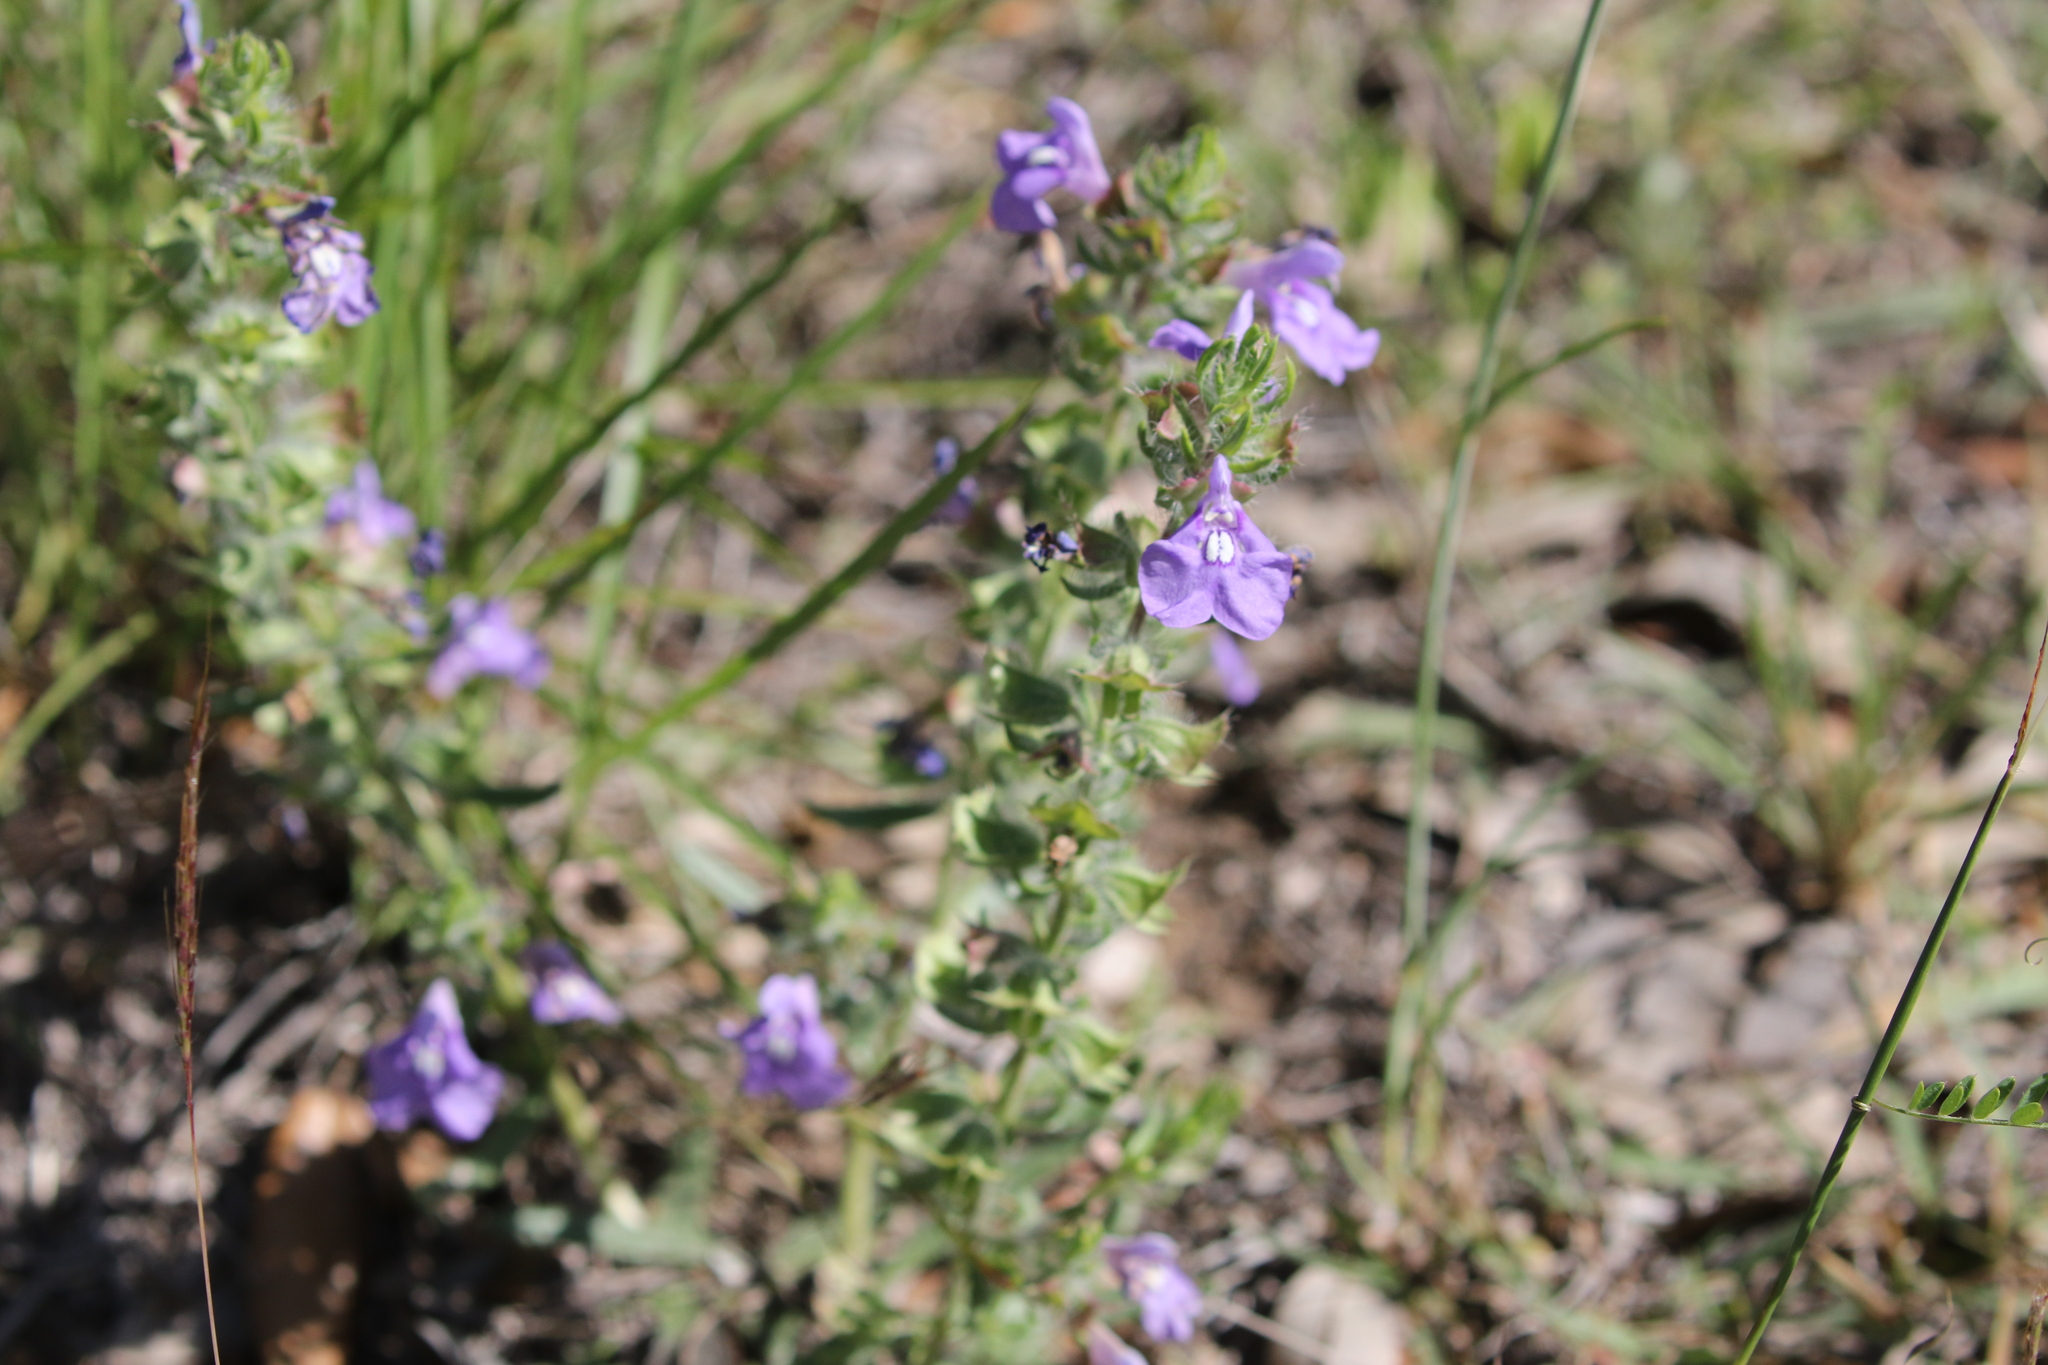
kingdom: Plantae
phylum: Tracheophyta
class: Magnoliopsida
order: Lamiales
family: Lamiaceae
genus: Salvia
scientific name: Salvia texana
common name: Texas sage
